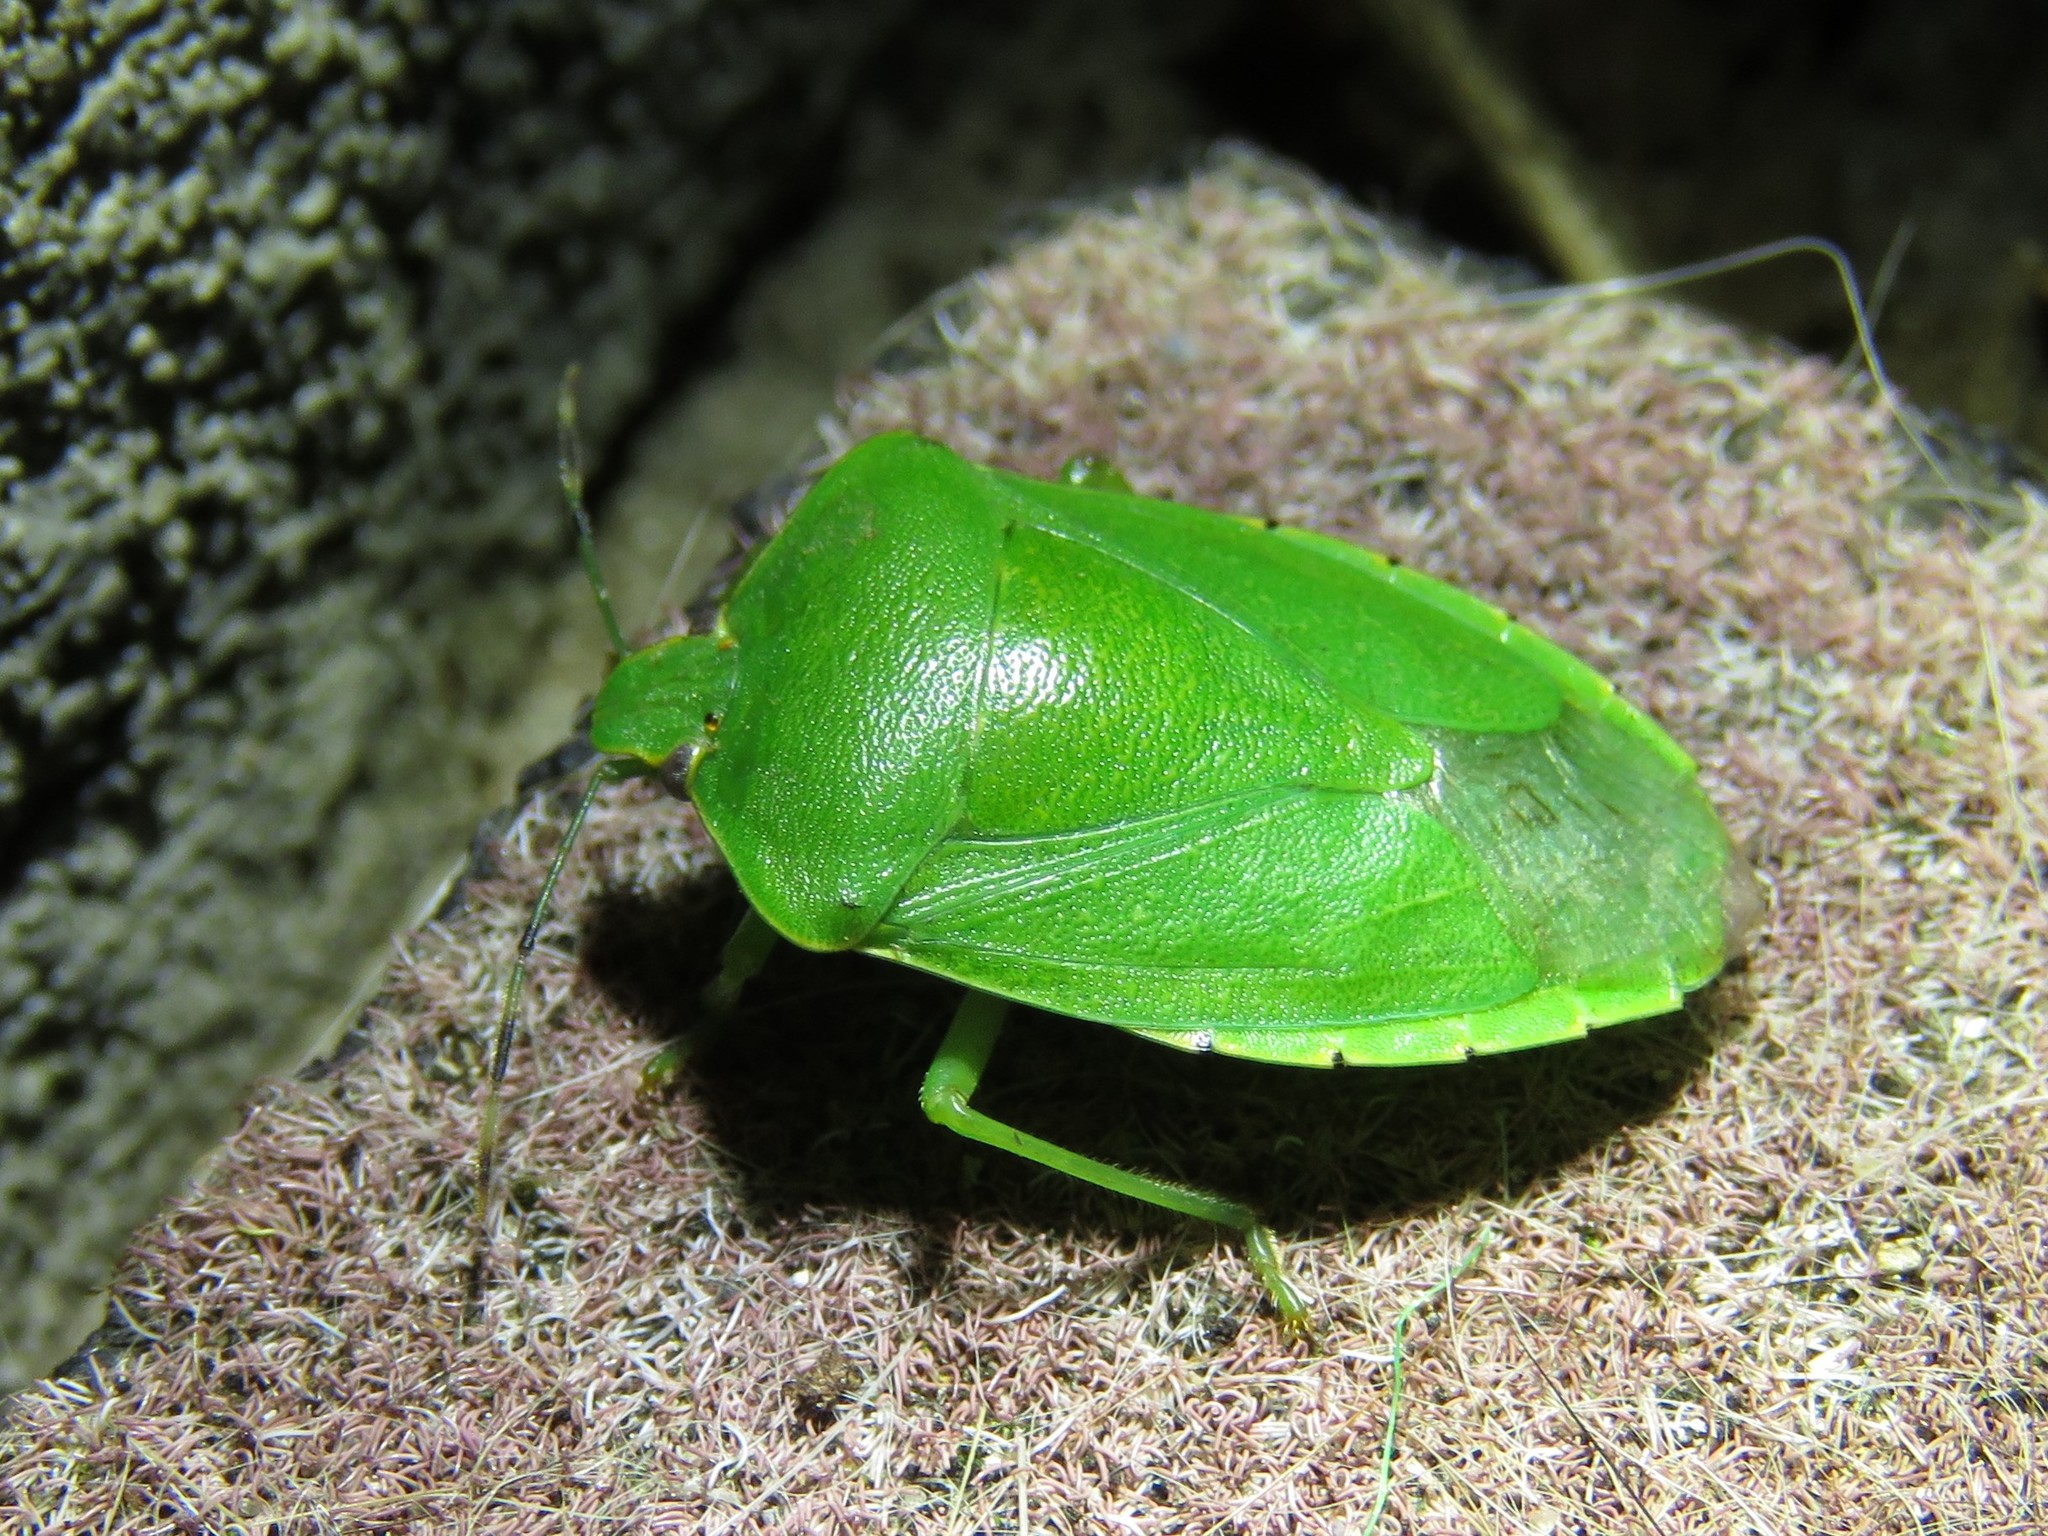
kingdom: Animalia
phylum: Arthropoda
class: Insecta
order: Hemiptera
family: Pentatomidae
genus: Chinavia
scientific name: Chinavia hilaris
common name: Green stink bug
